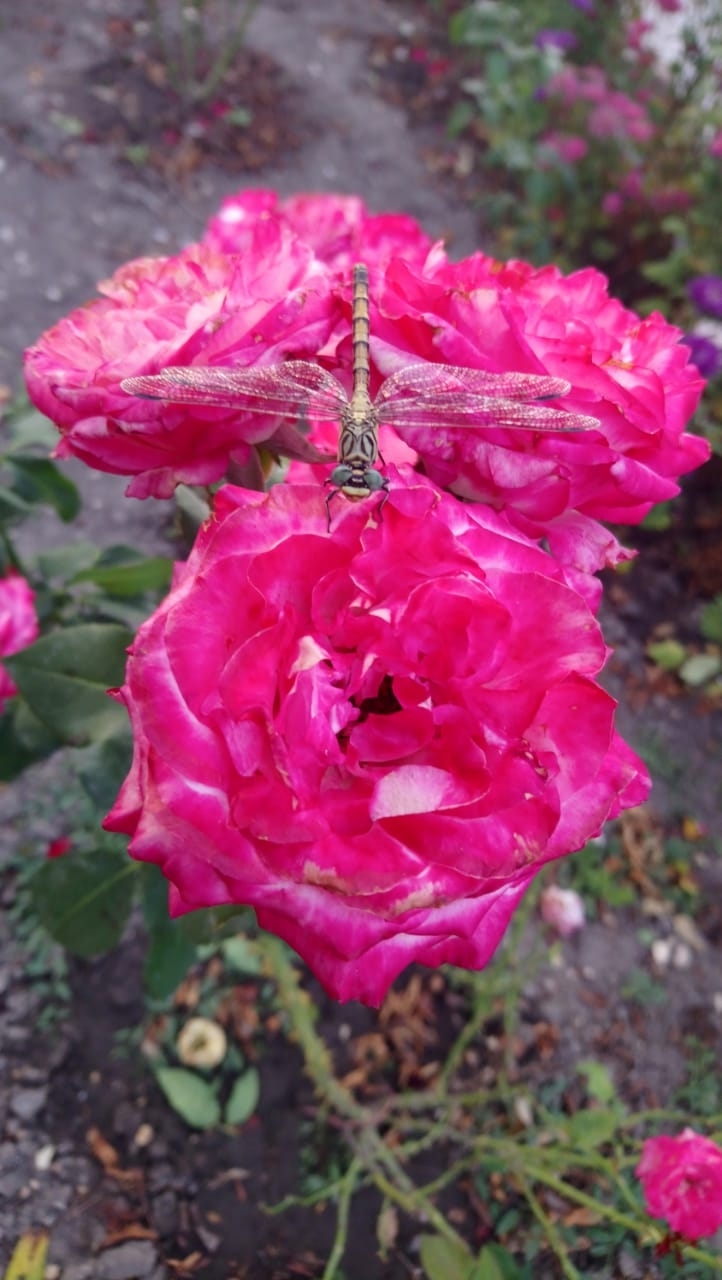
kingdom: Animalia
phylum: Arthropoda
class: Insecta
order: Odonata
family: Gomphidae
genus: Onychogomphus
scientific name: Onychogomphus forcipatus
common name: Small pincertail
